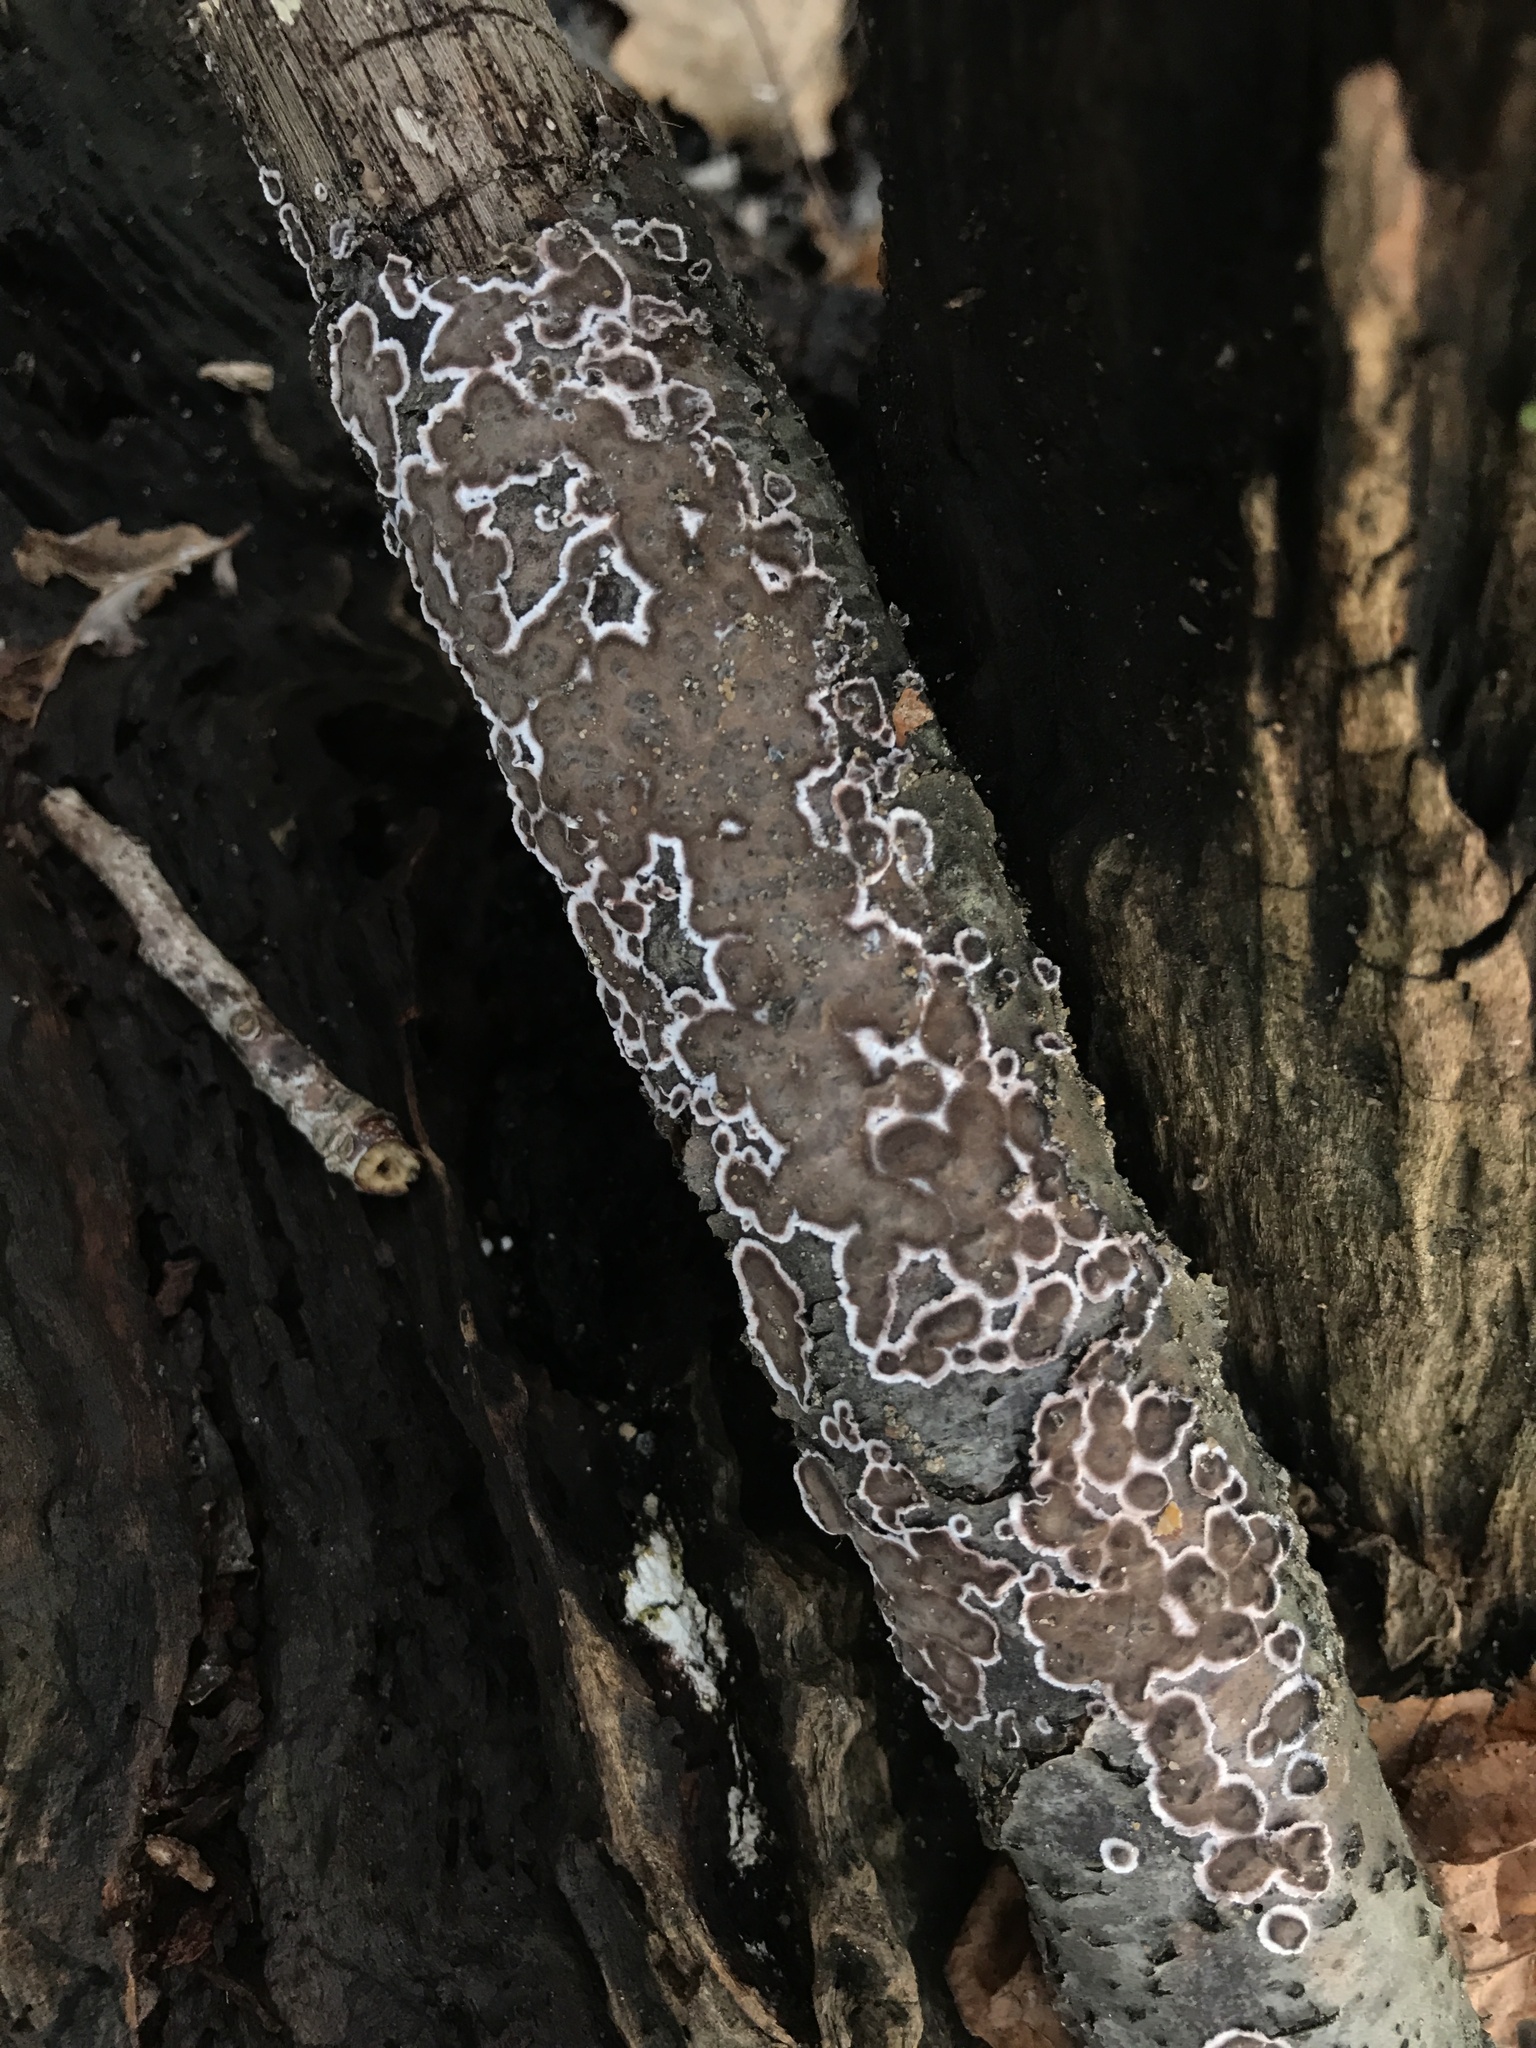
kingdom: Fungi
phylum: Basidiomycota
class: Agaricomycetes
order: Russulales
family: Peniophoraceae
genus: Peniophora
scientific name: Peniophora albobadia
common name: Giraffe spots
